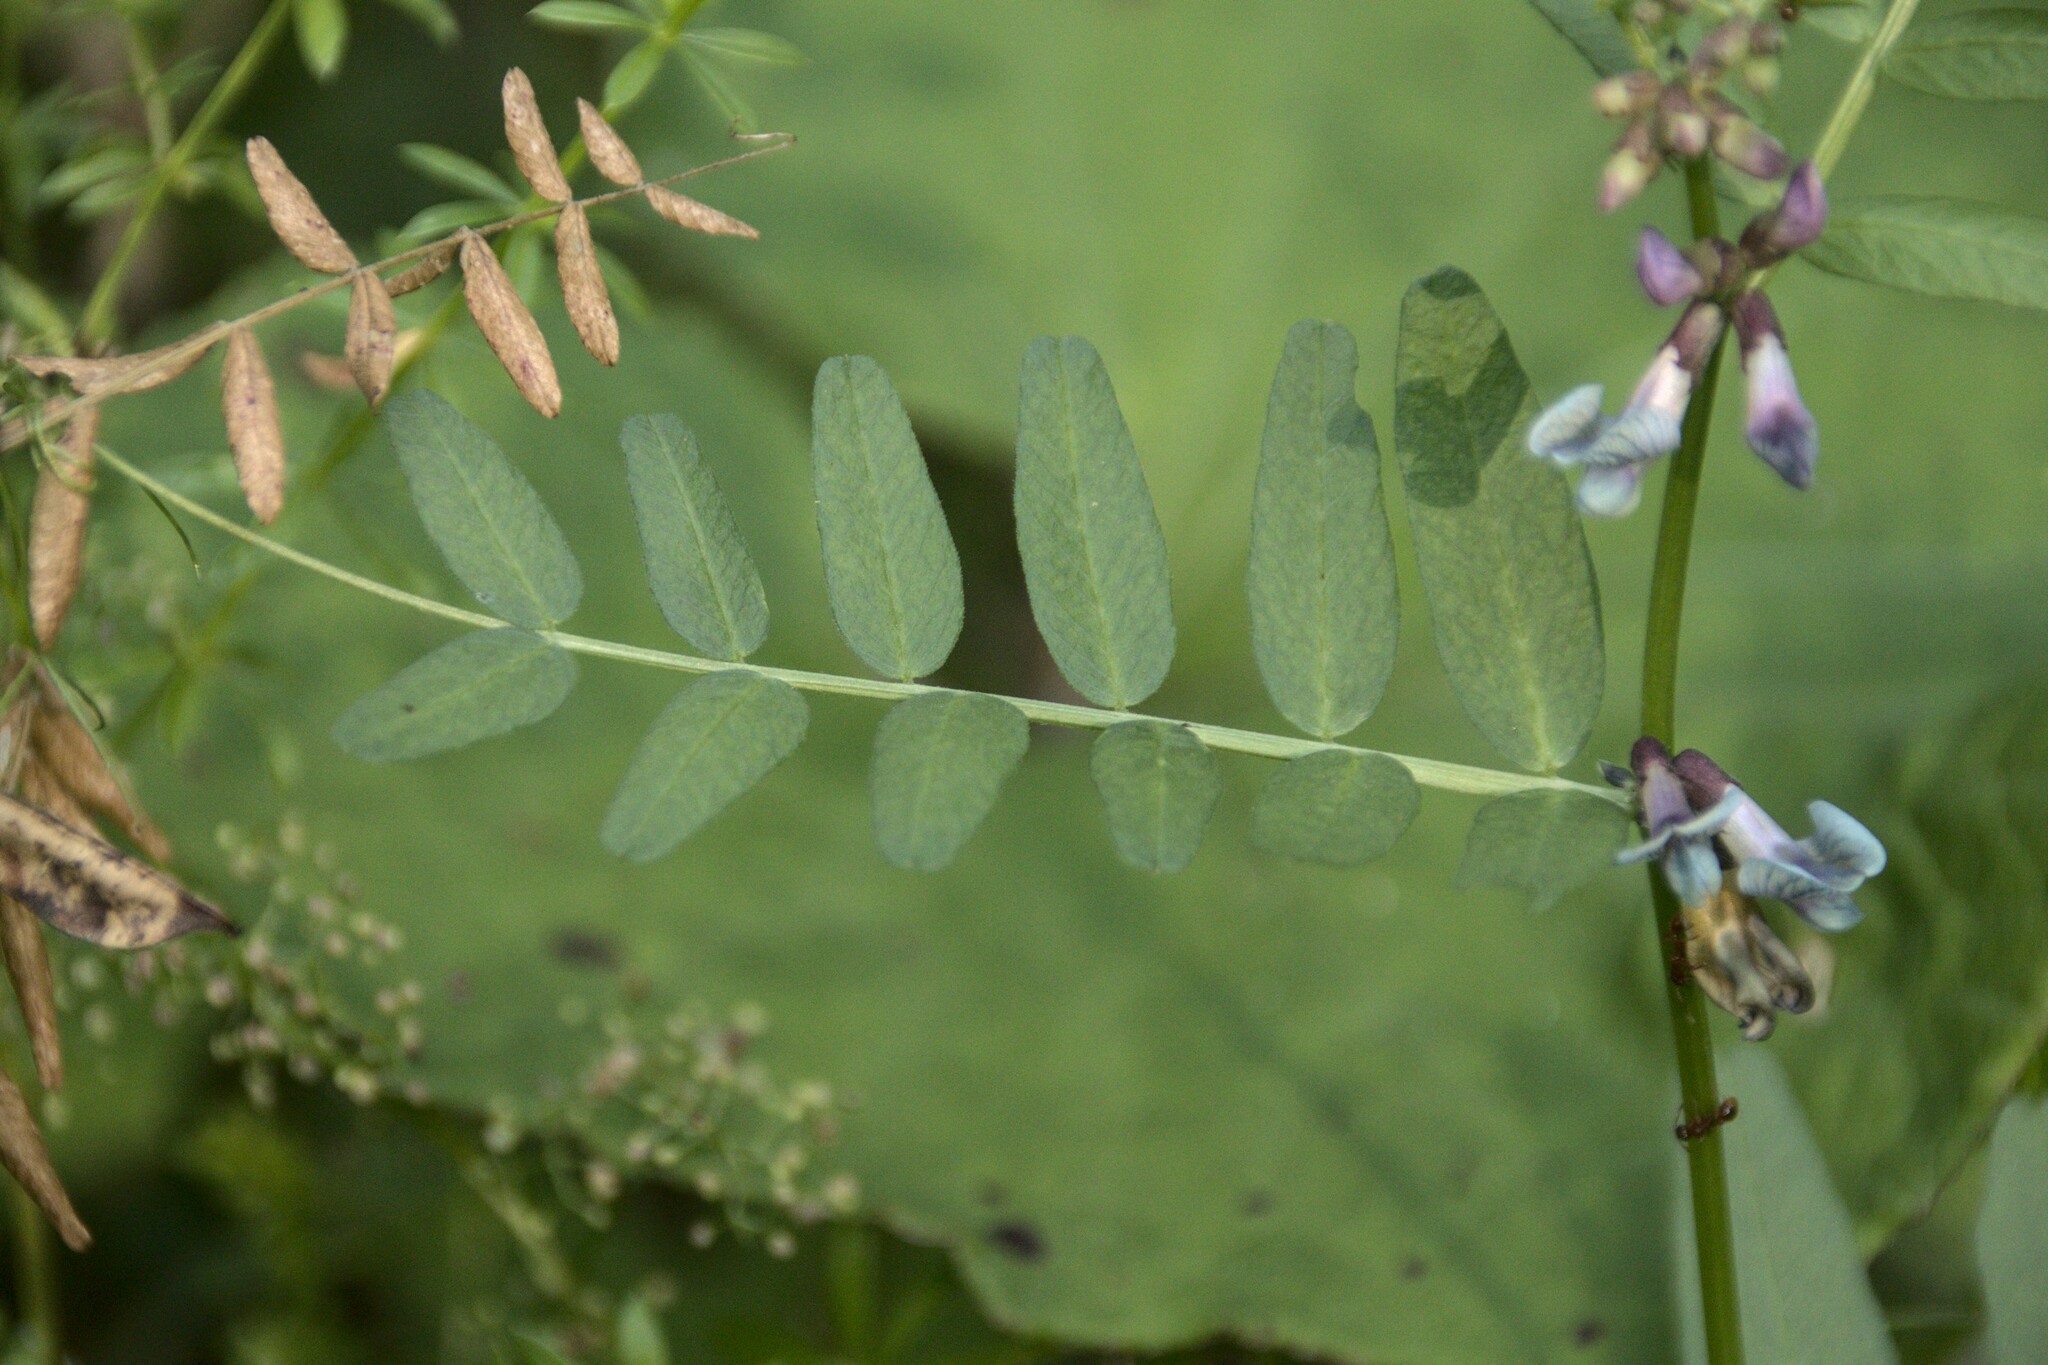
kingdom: Plantae
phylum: Tracheophyta
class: Magnoliopsida
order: Fabales
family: Fabaceae
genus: Vicia
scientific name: Vicia sepium
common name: Bush vetch
